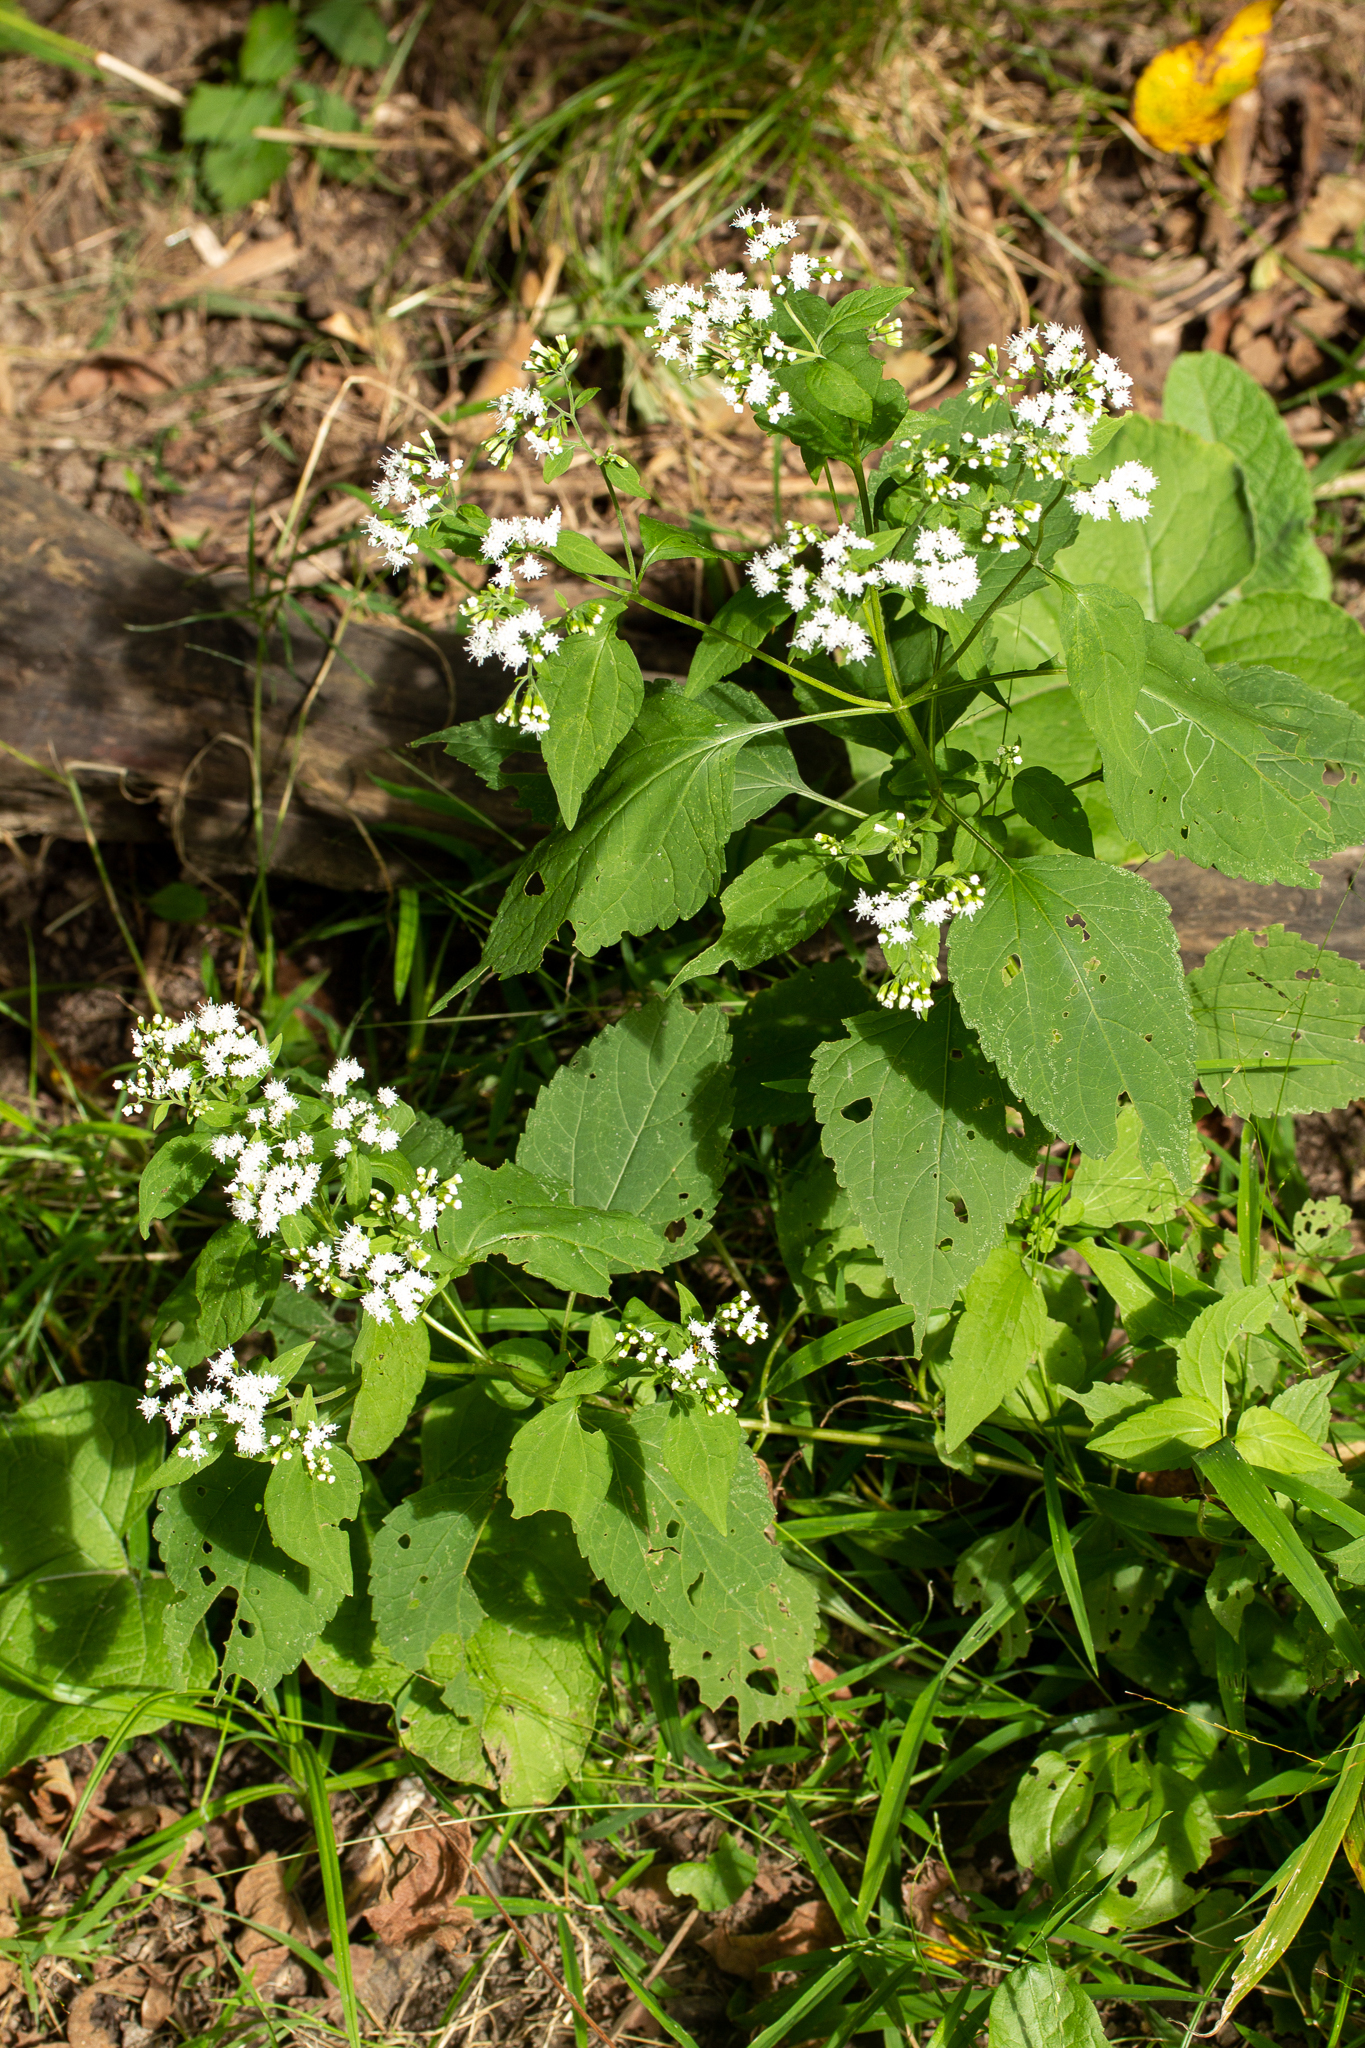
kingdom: Plantae
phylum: Tracheophyta
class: Magnoliopsida
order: Asterales
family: Asteraceae
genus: Ageratina
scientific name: Ageratina altissima
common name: White snakeroot
